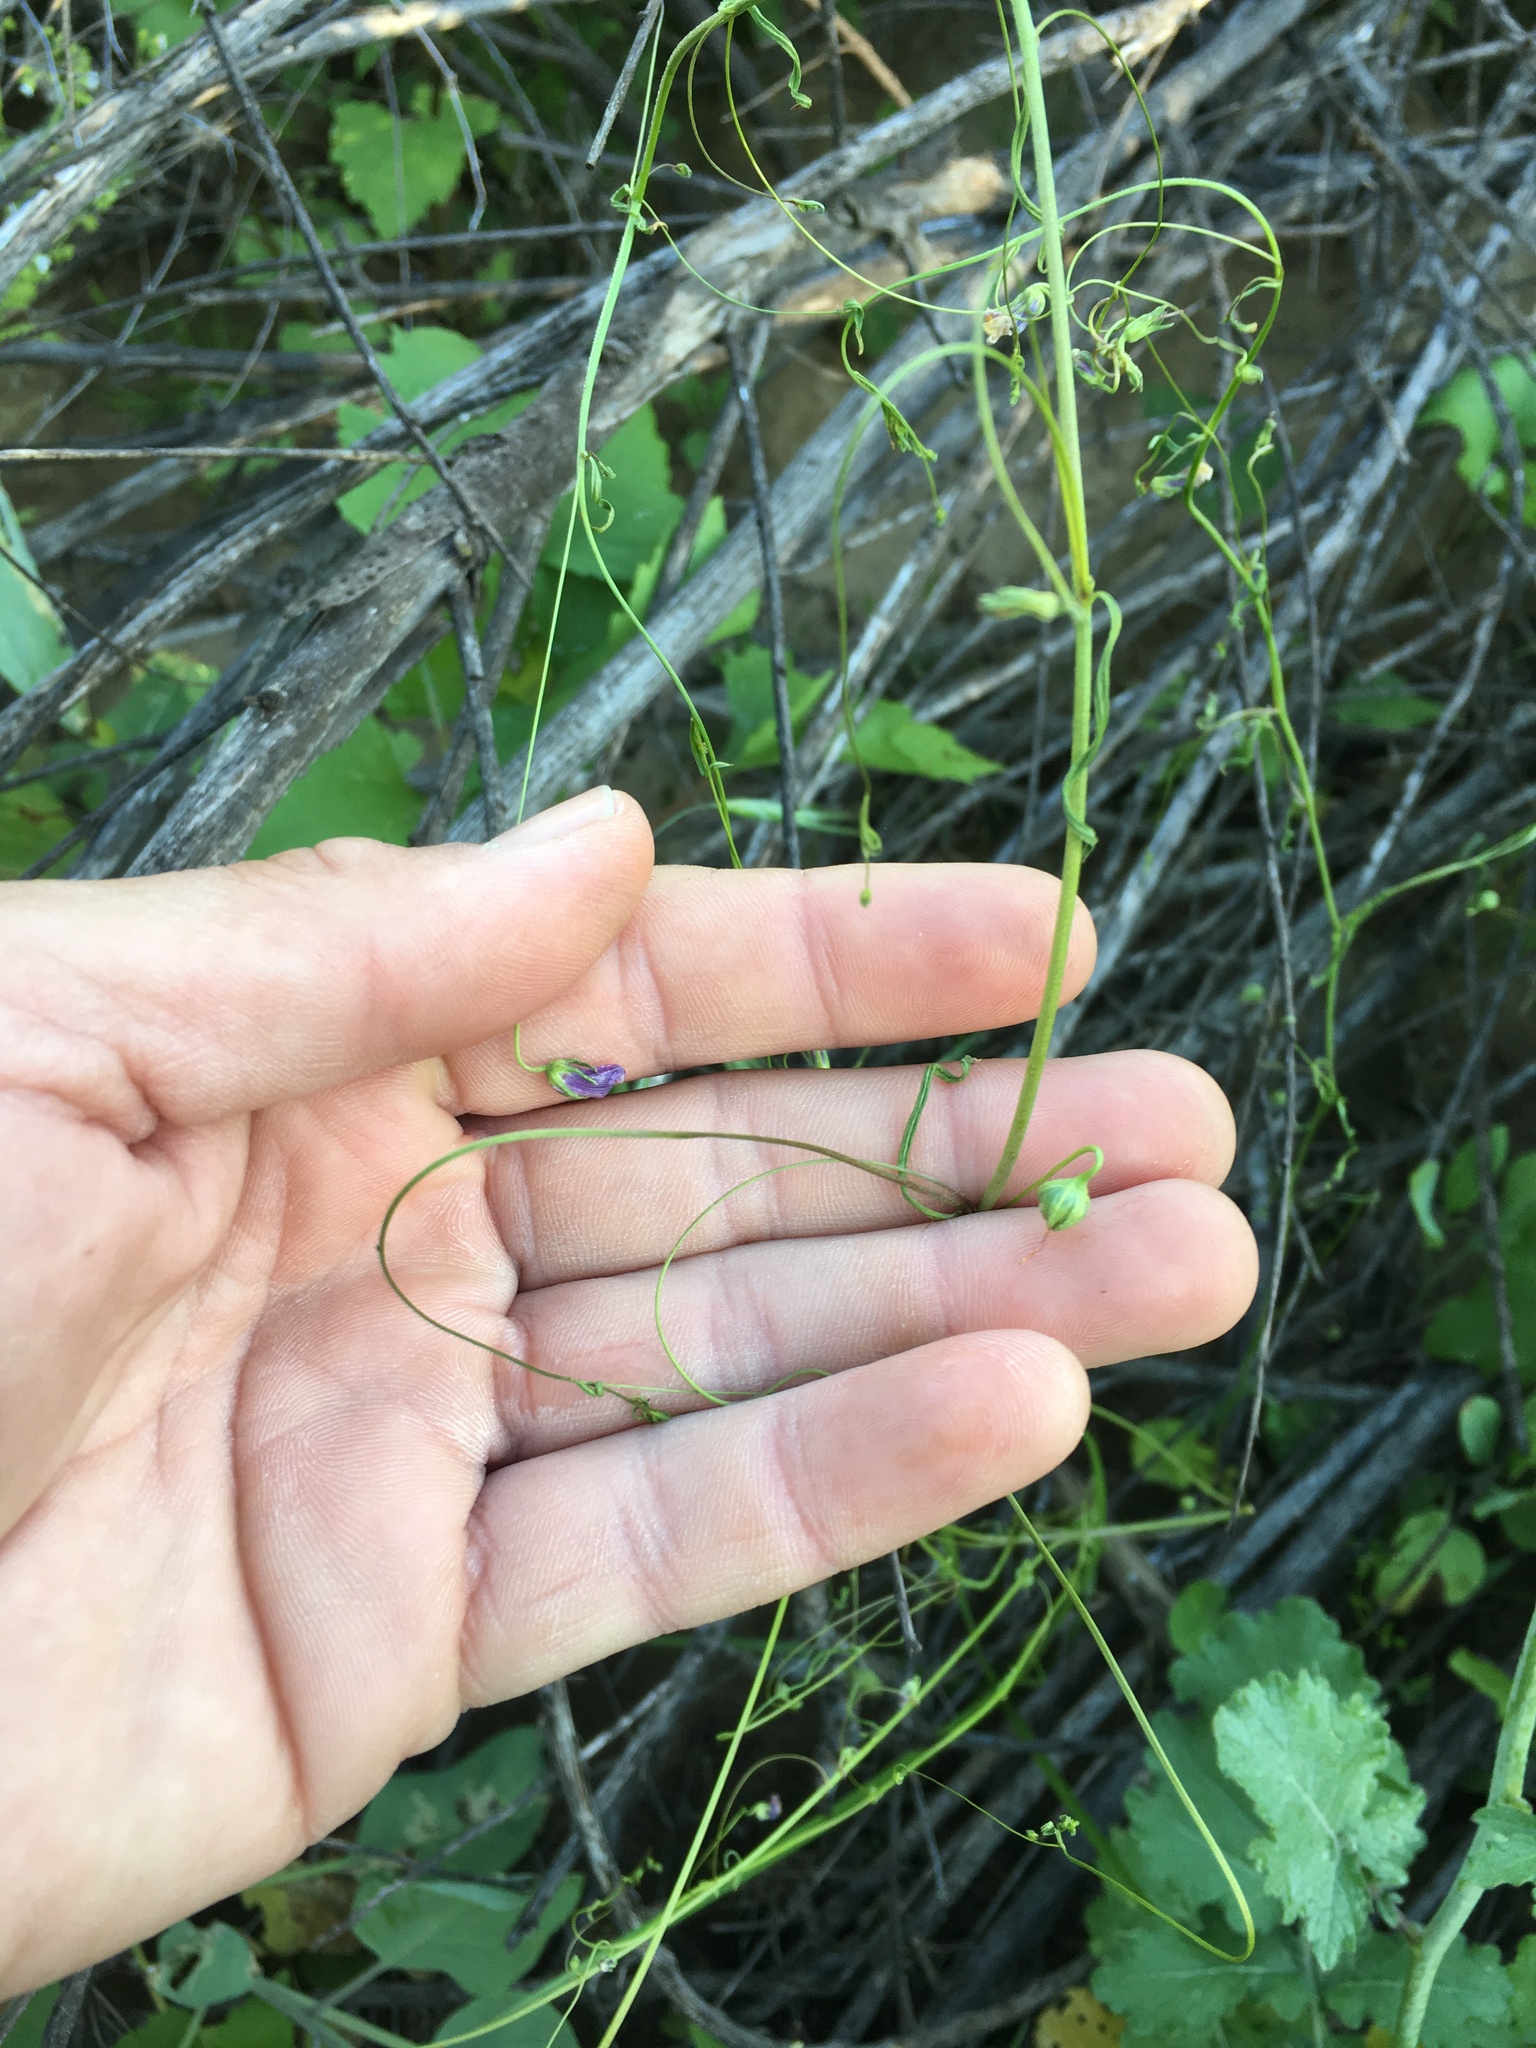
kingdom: Plantae
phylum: Tracheophyta
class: Magnoliopsida
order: Lamiales
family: Plantaginaceae
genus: Neogaerrhinum
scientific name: Neogaerrhinum strictum
